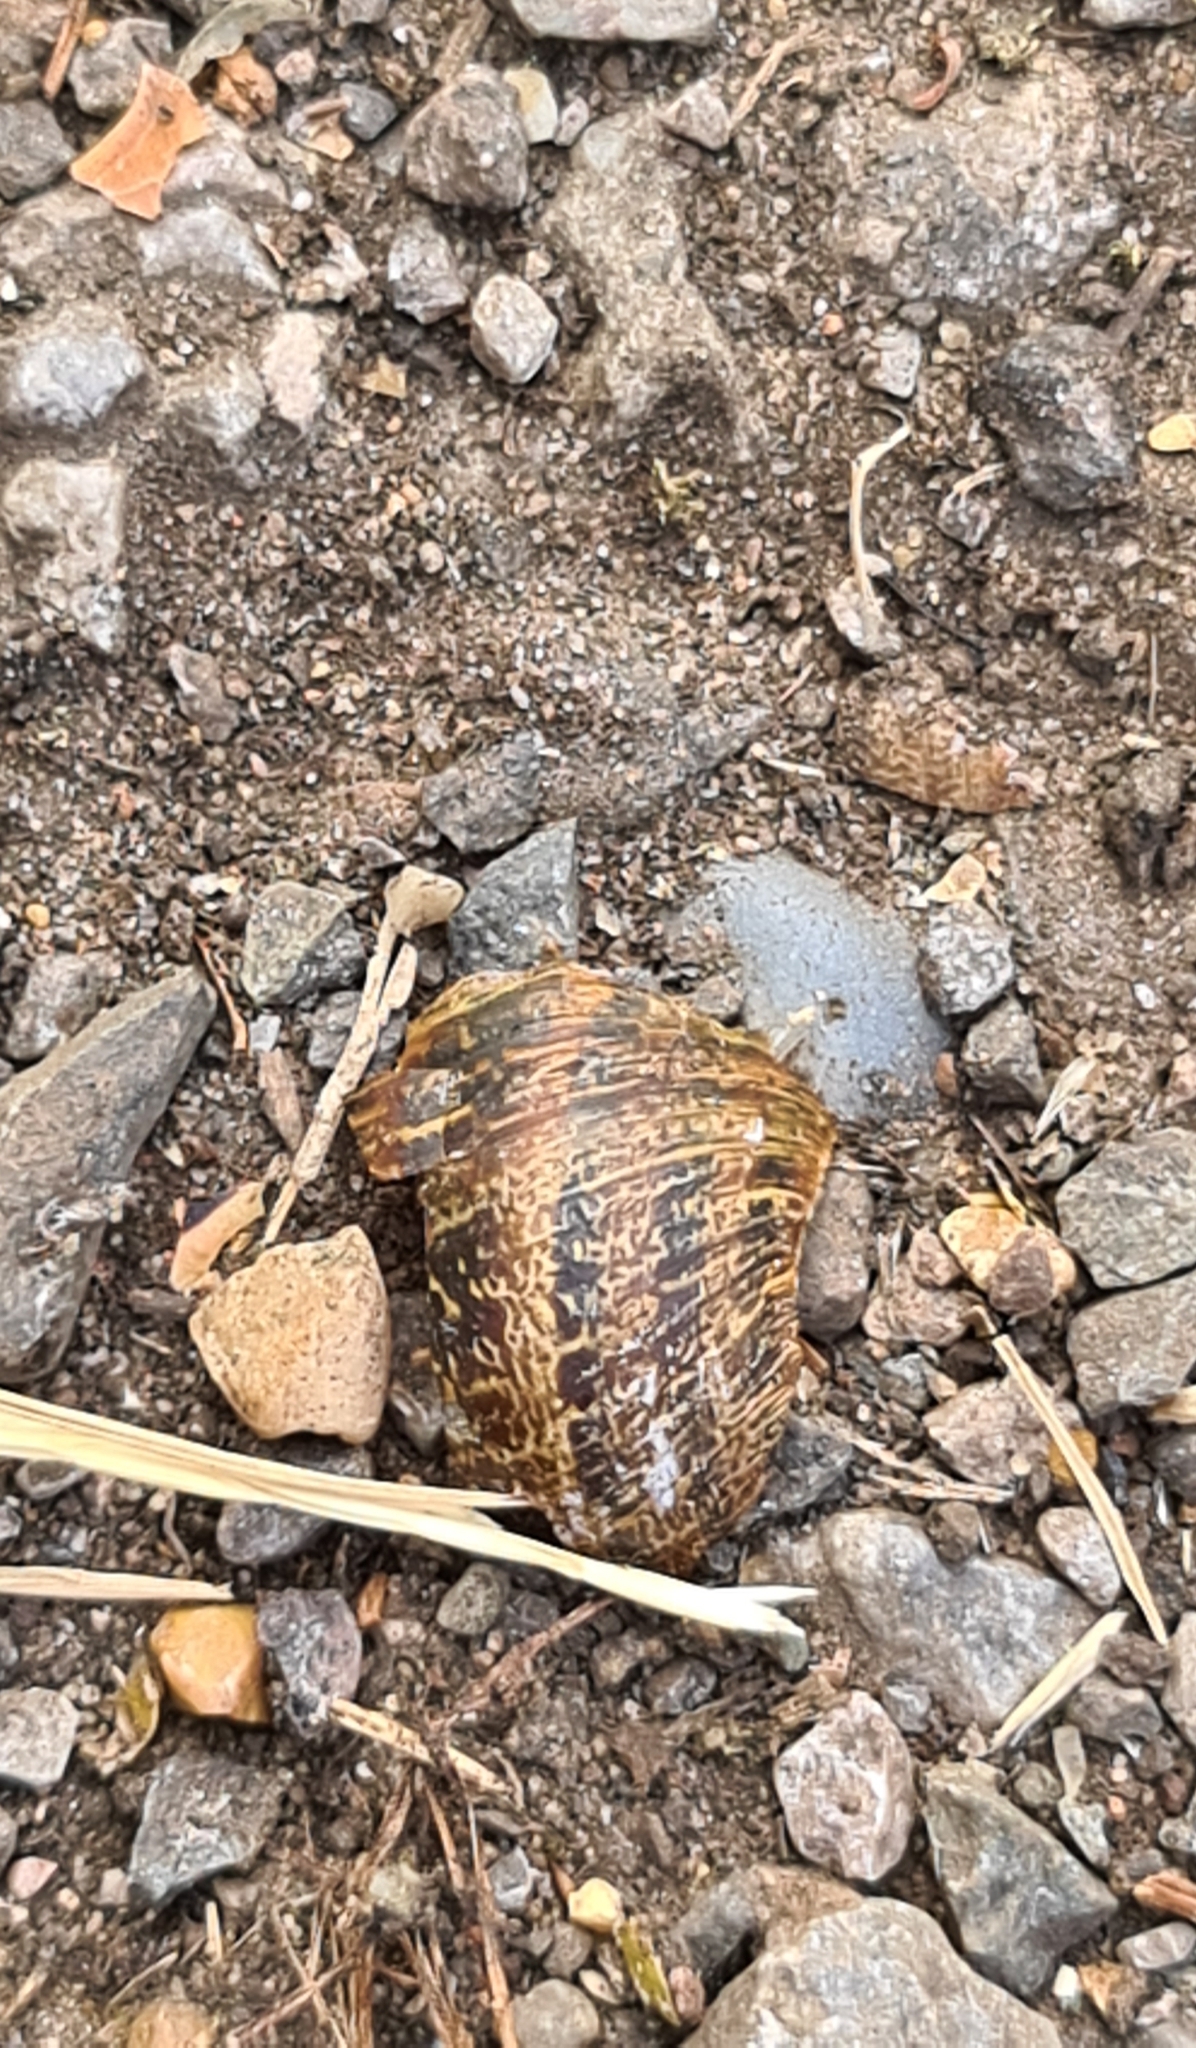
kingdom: Animalia
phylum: Mollusca
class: Gastropoda
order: Stylommatophora
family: Helicidae
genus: Cornu
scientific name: Cornu aspersum
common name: Brown garden snail
